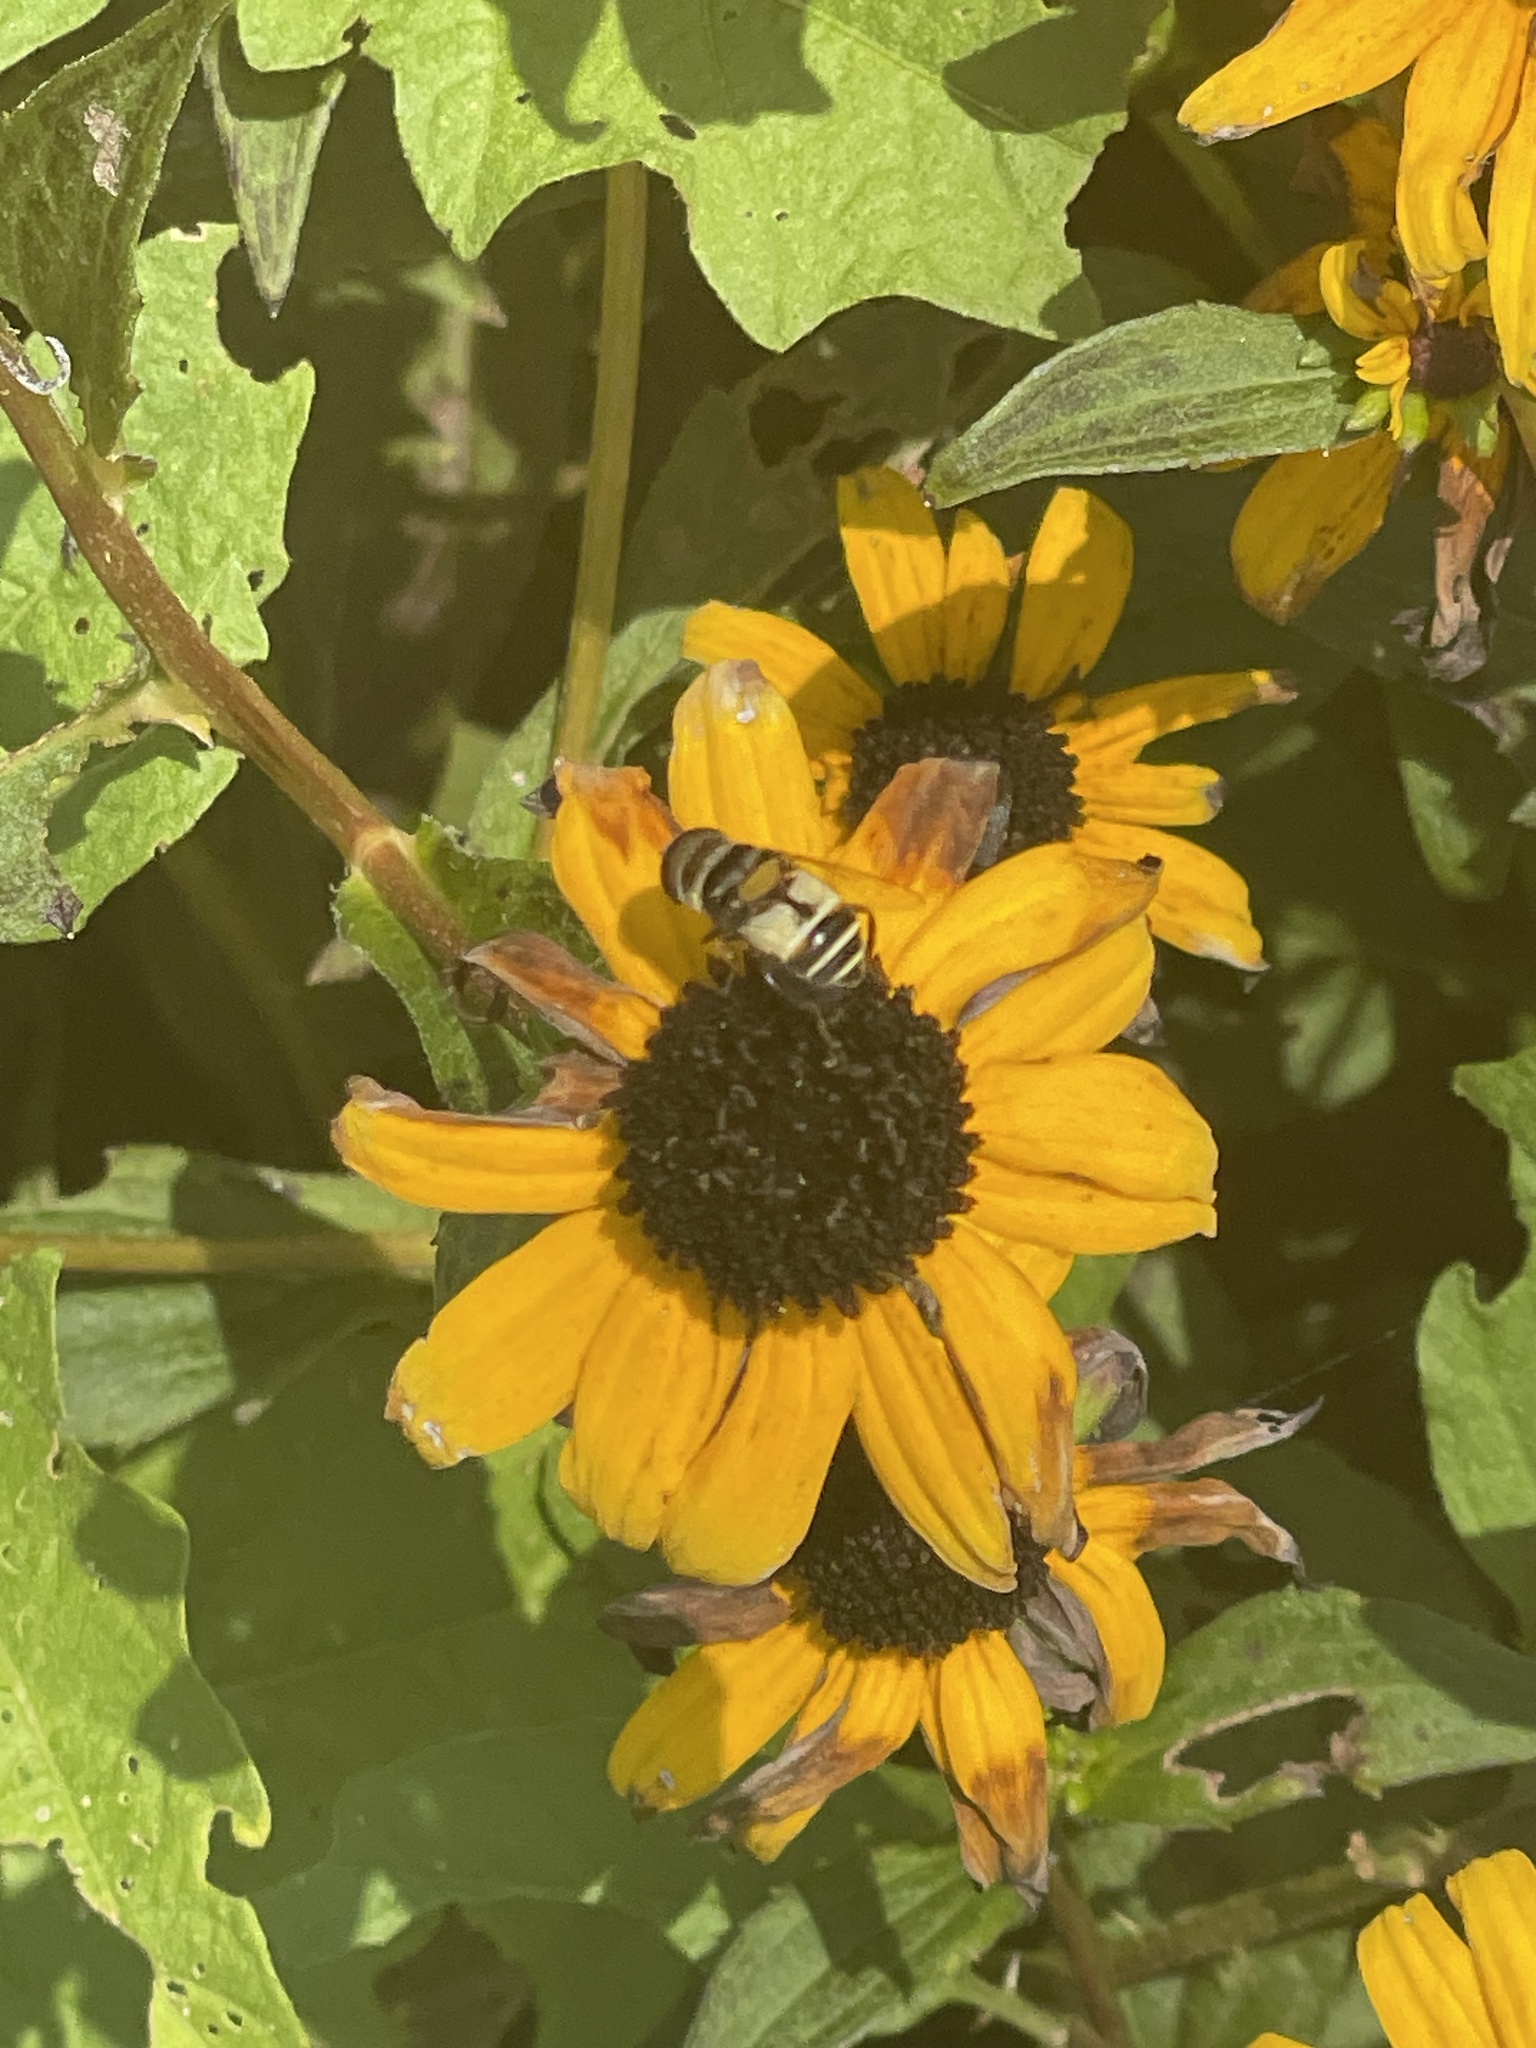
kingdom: Animalia
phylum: Arthropoda
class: Insecta
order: Diptera
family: Syrphidae
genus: Palpada
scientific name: Palpada albifrons
